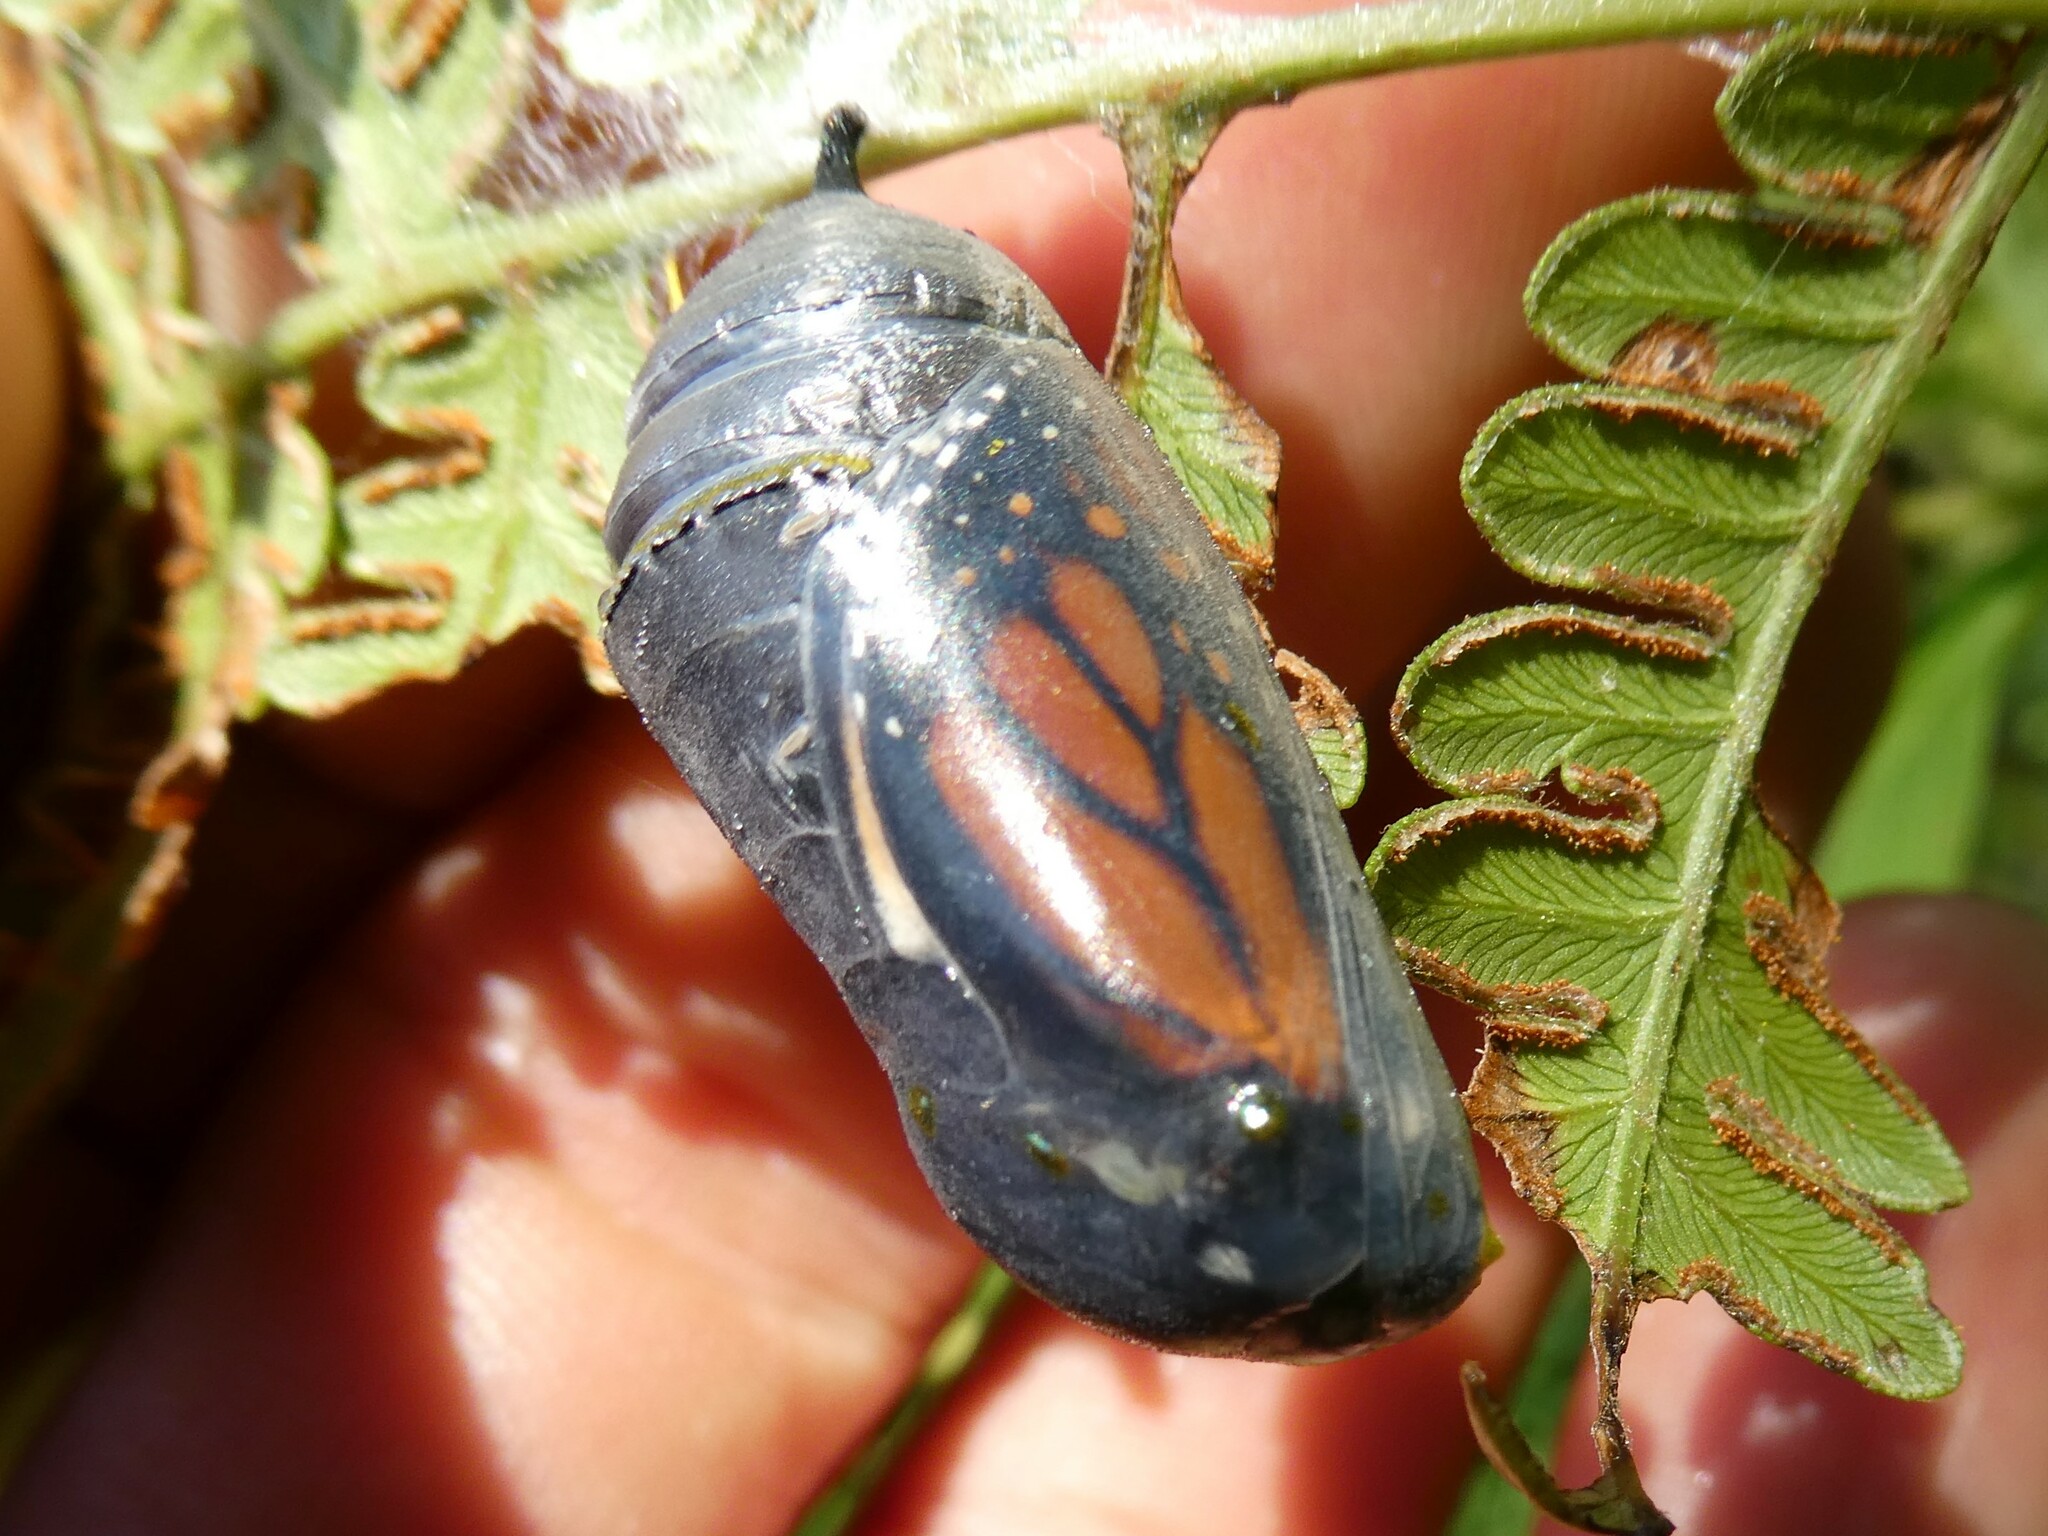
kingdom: Animalia
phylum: Arthropoda
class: Insecta
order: Lepidoptera
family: Nymphalidae
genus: Danaus
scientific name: Danaus plexippus
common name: Monarch
